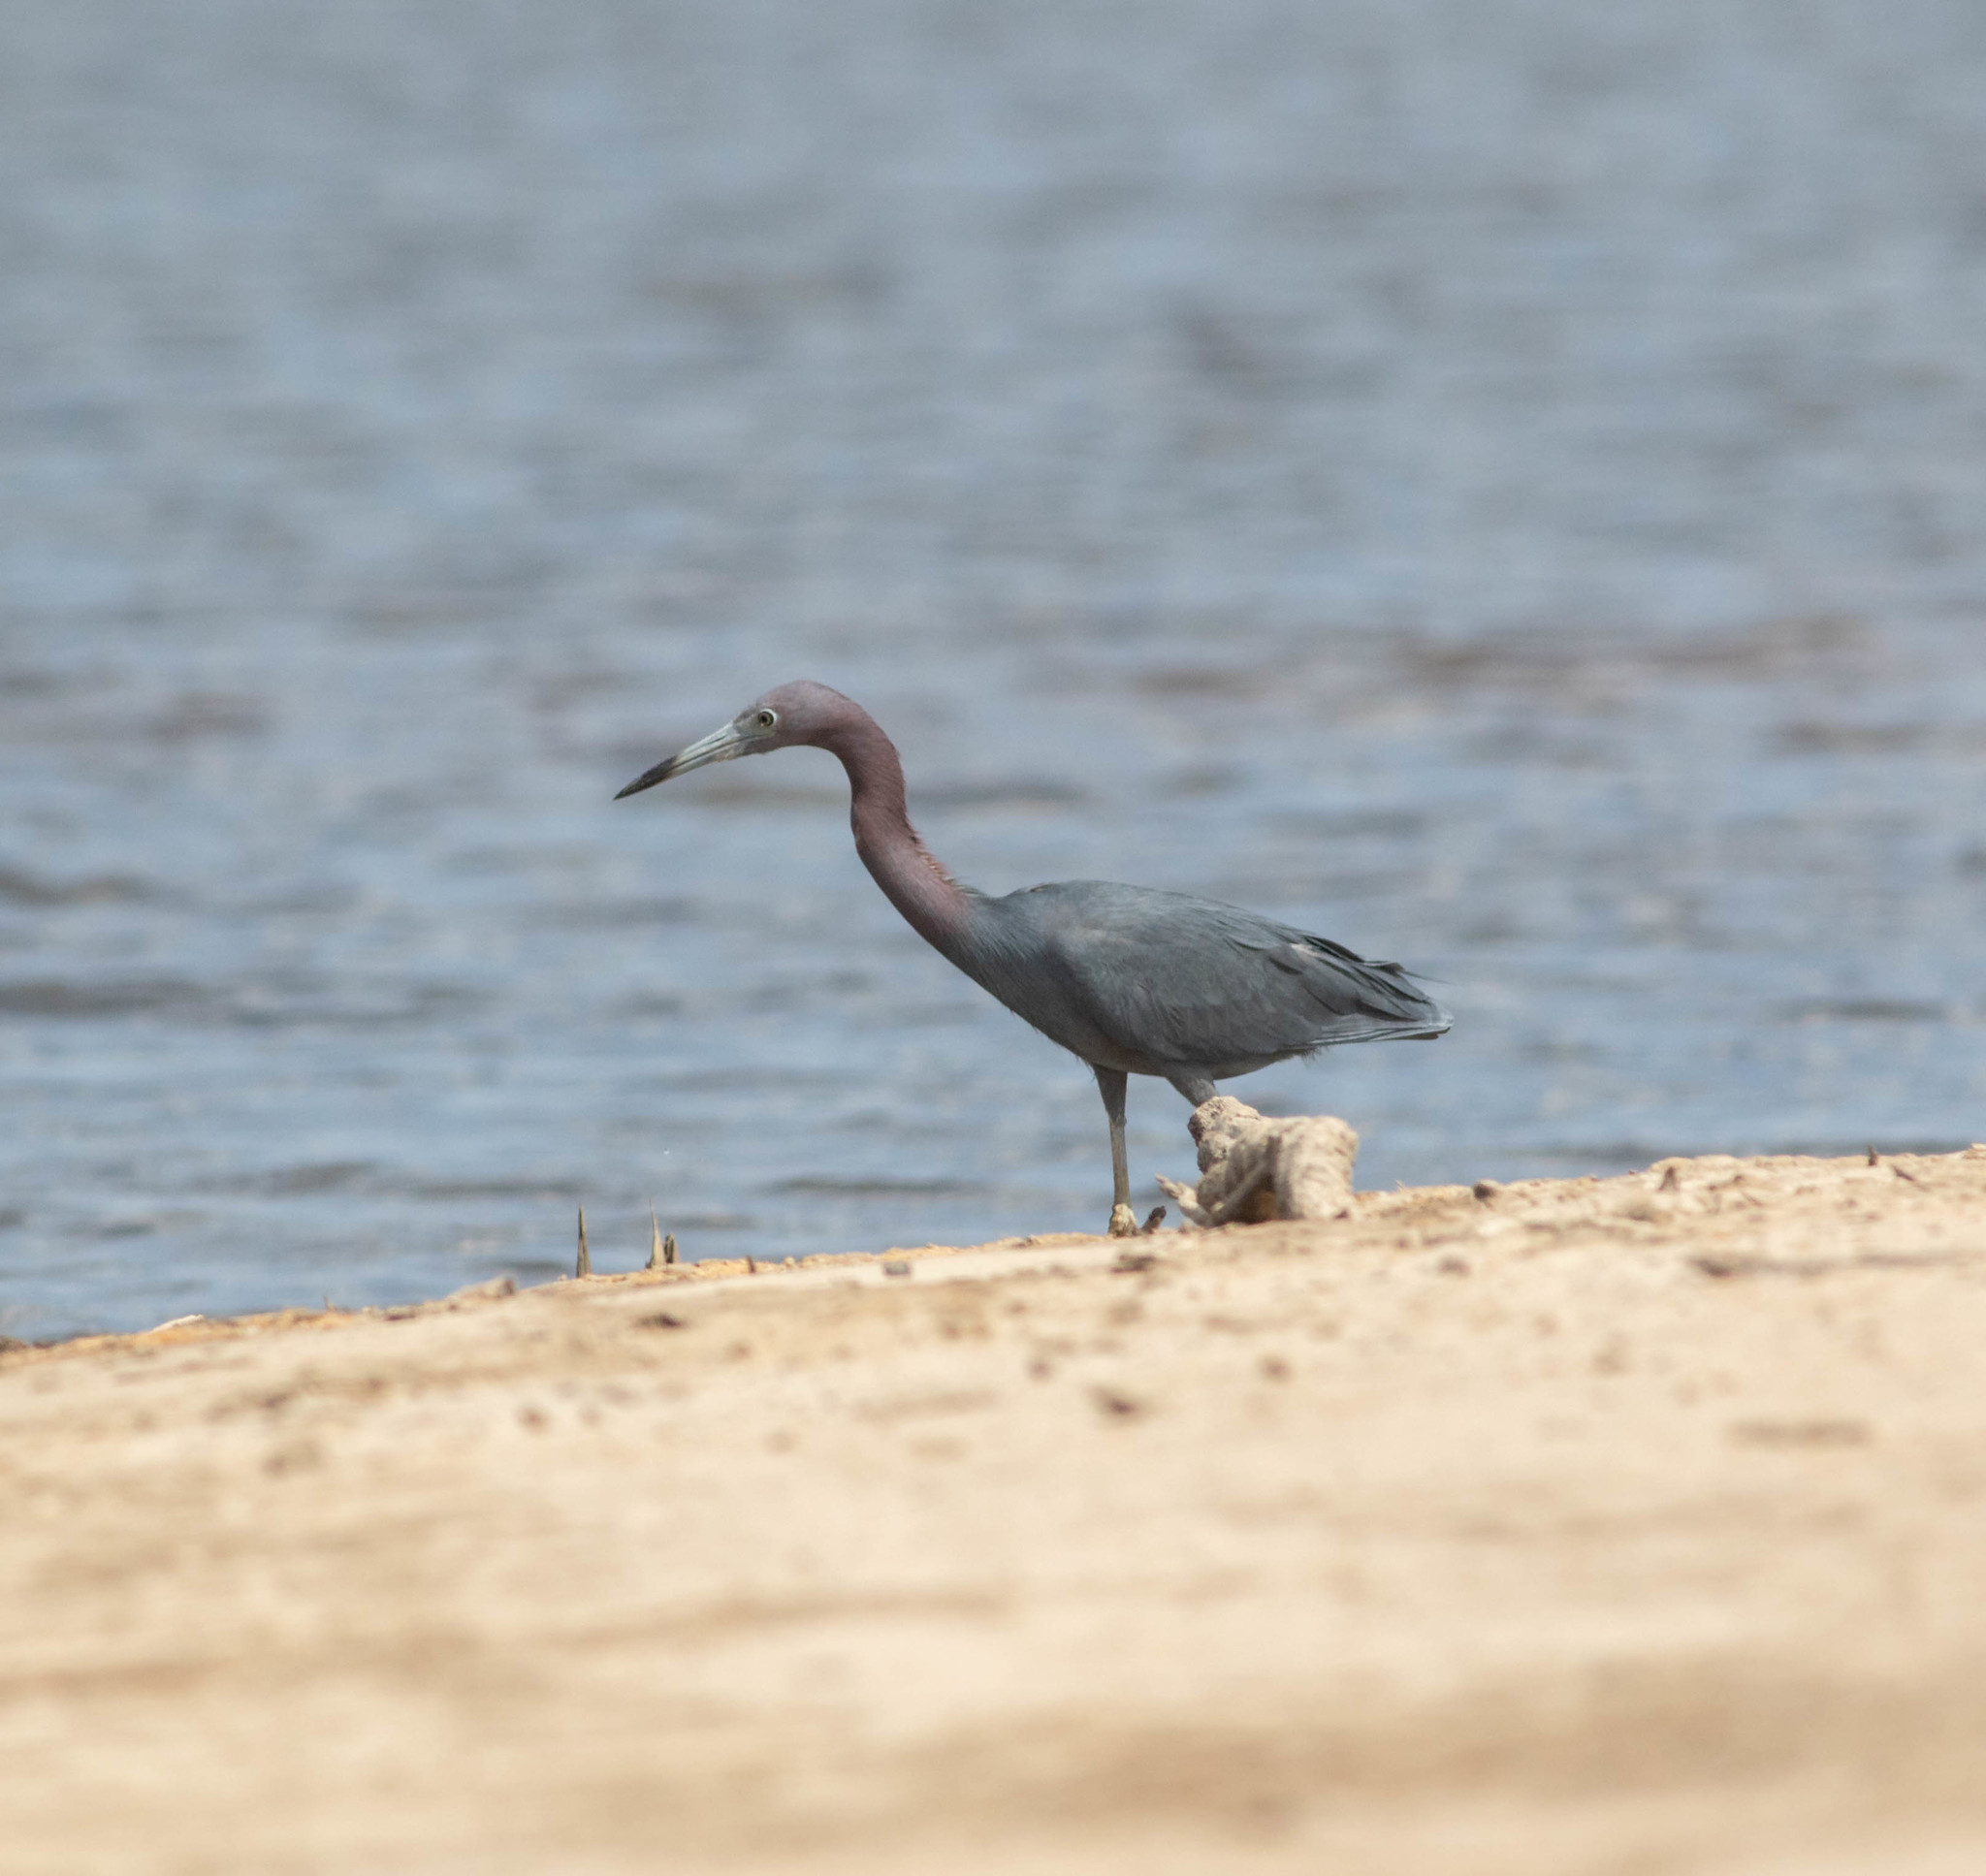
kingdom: Animalia
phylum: Chordata
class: Aves
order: Pelecaniformes
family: Ardeidae
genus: Egretta
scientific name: Egretta caerulea
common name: Little blue heron
